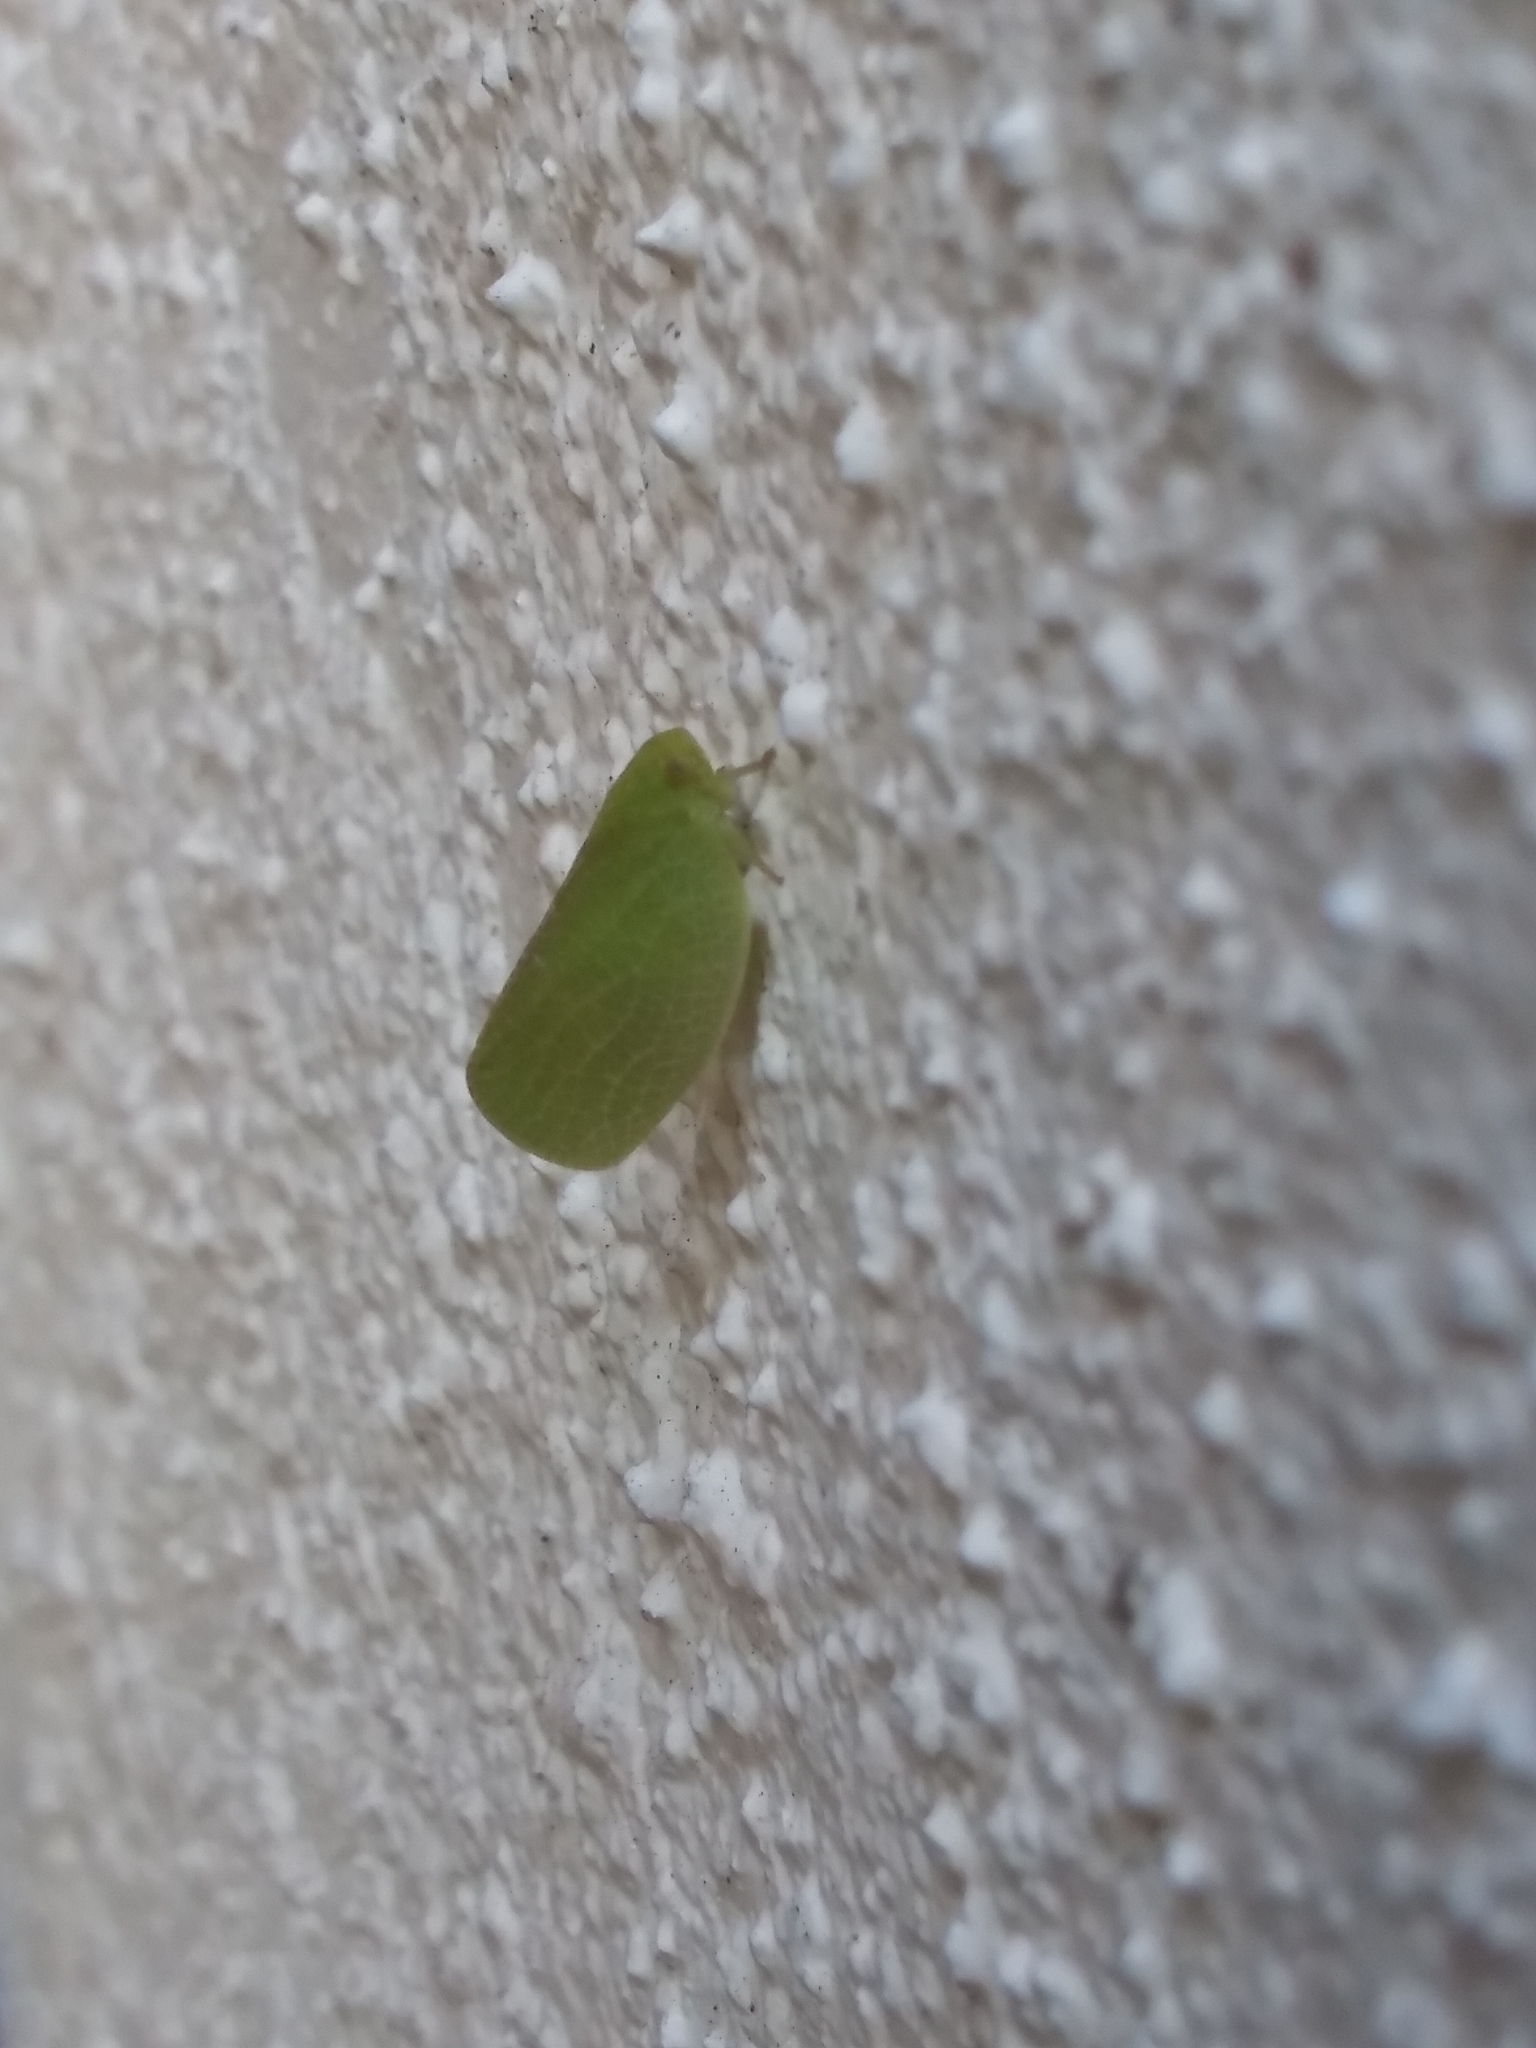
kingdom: Animalia
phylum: Arthropoda
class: Insecta
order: Hemiptera
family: Acanaloniidae
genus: Acanalonia
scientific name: Acanalonia excavata
